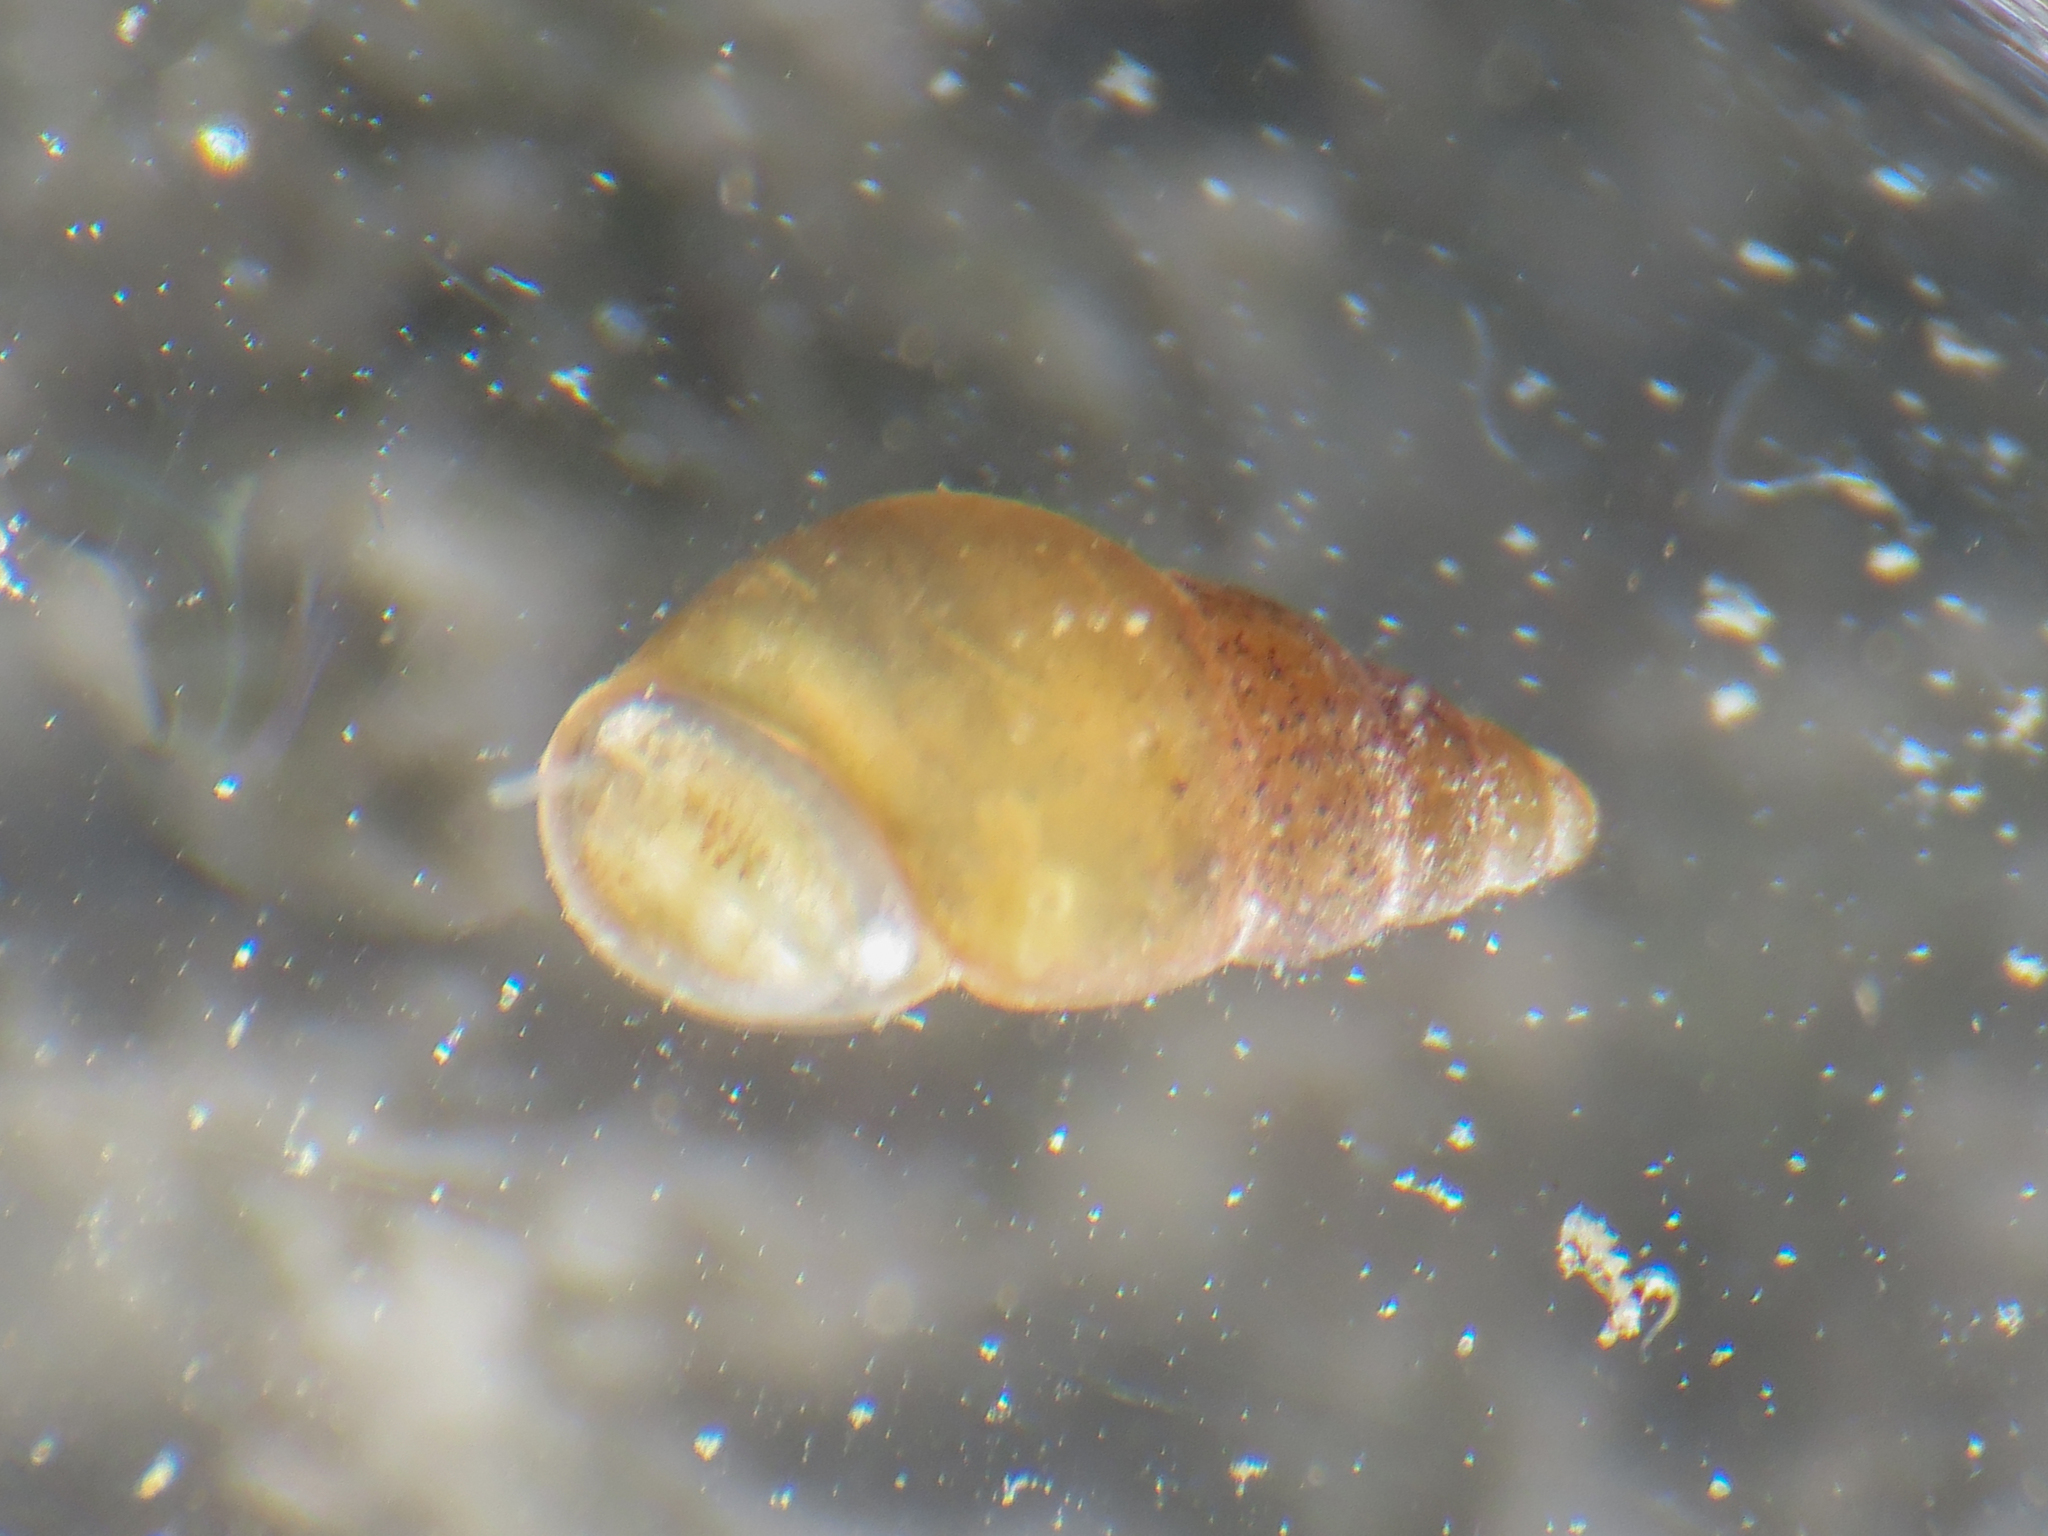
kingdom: Animalia
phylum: Mollusca
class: Gastropoda
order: Littorinimorpha
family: Tateidae
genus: Potamopyrgus
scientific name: Potamopyrgus antipodarum
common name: Jenkins' spire snail
